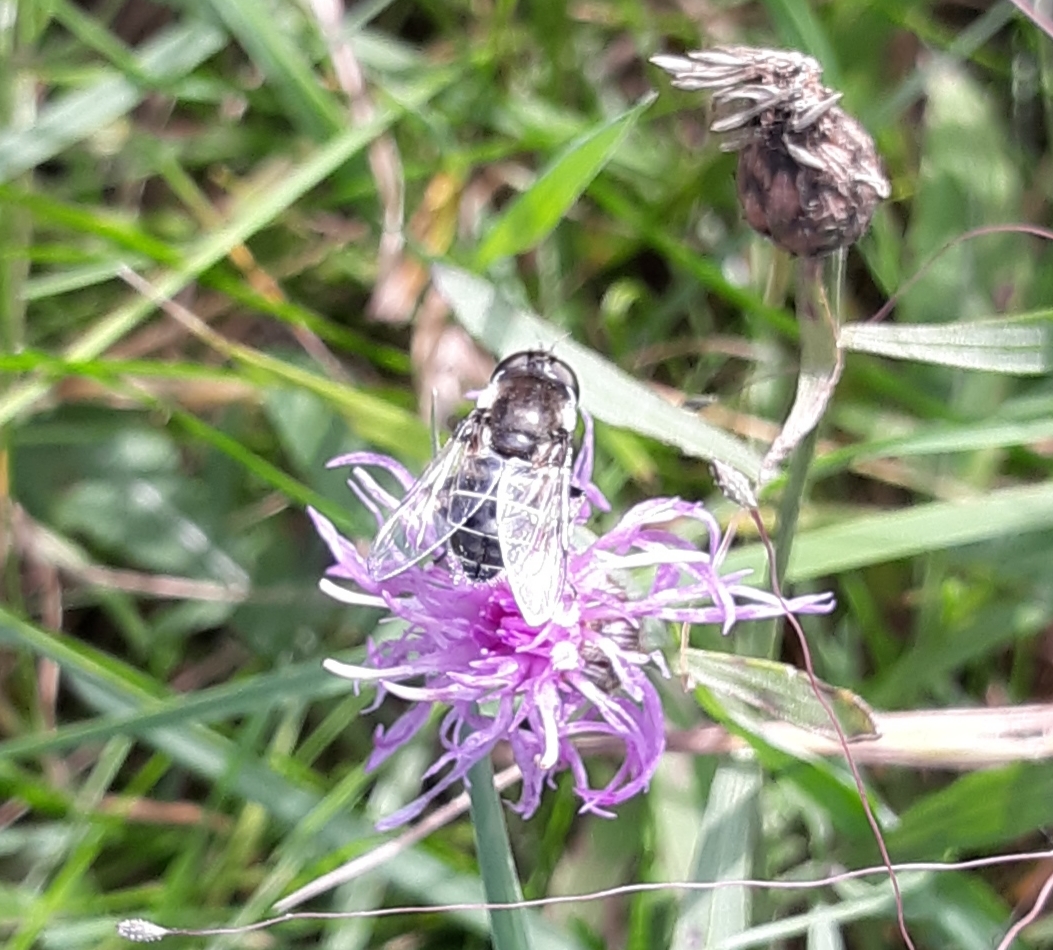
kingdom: Animalia
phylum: Arthropoda
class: Insecta
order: Diptera
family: Syrphidae
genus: Eristalis
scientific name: Eristalis dimidiata
